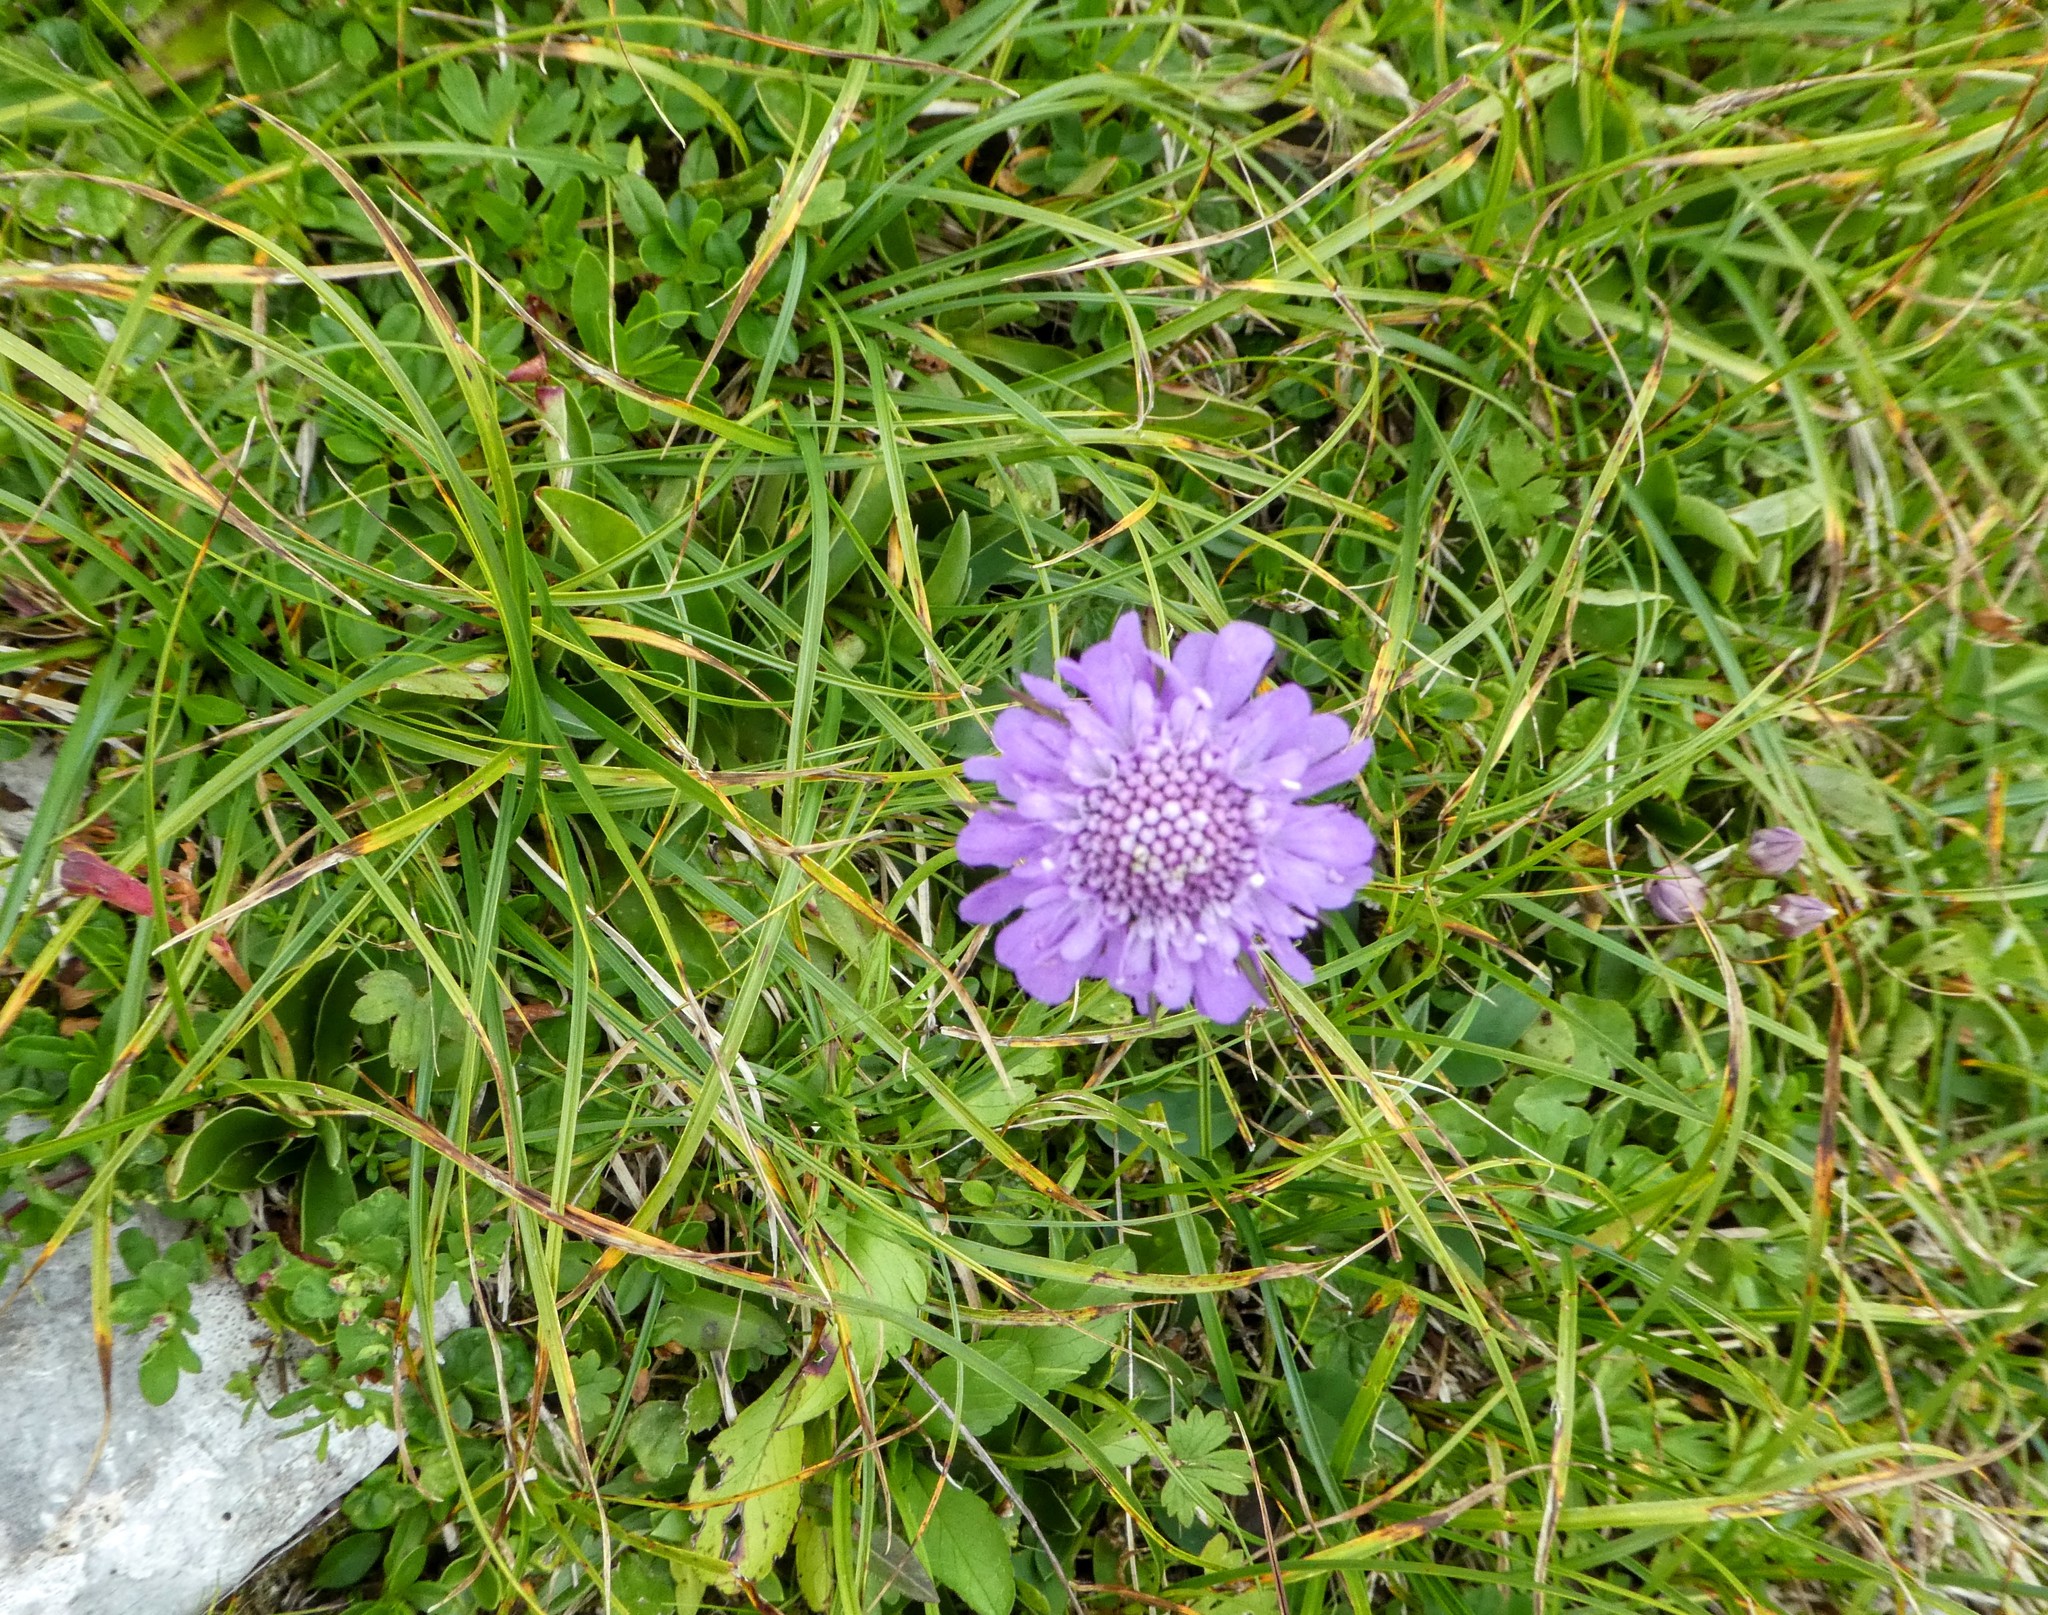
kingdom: Plantae
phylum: Tracheophyta
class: Magnoliopsida
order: Dipsacales
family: Caprifoliaceae
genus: Scabiosa
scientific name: Scabiosa lucida
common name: Shining scabious
